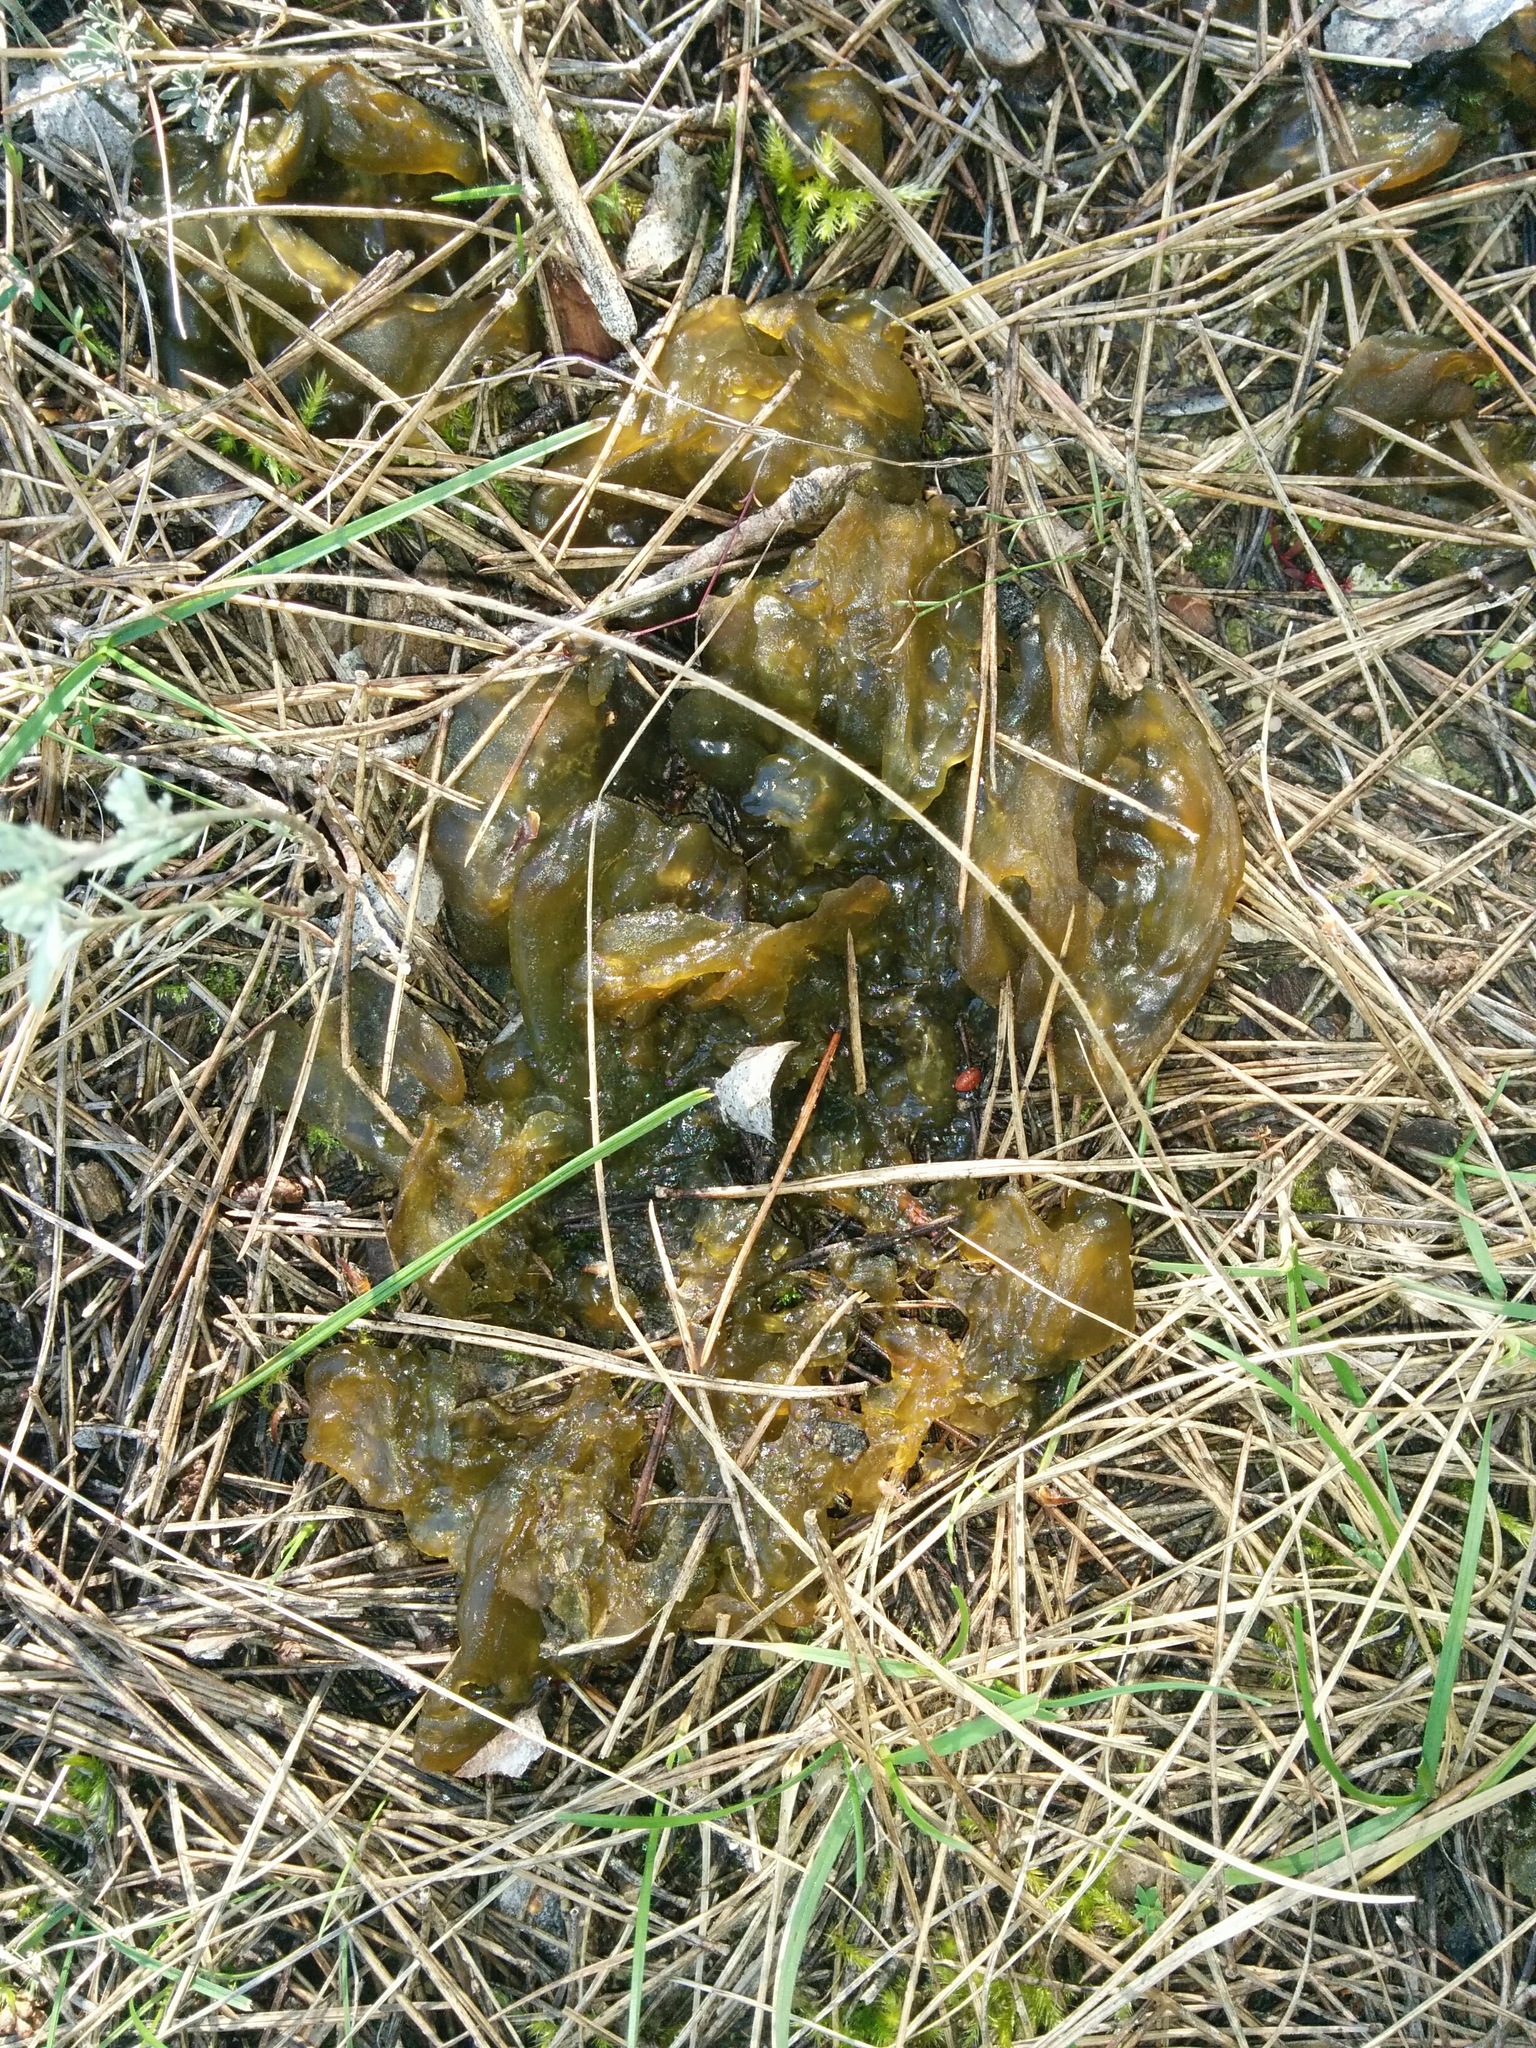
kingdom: Bacteria
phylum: Cyanobacteria
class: Cyanobacteriia
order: Cyanobacteriales
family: Nostocaceae
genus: Nostoc
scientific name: Nostoc commune
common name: Star jelly
